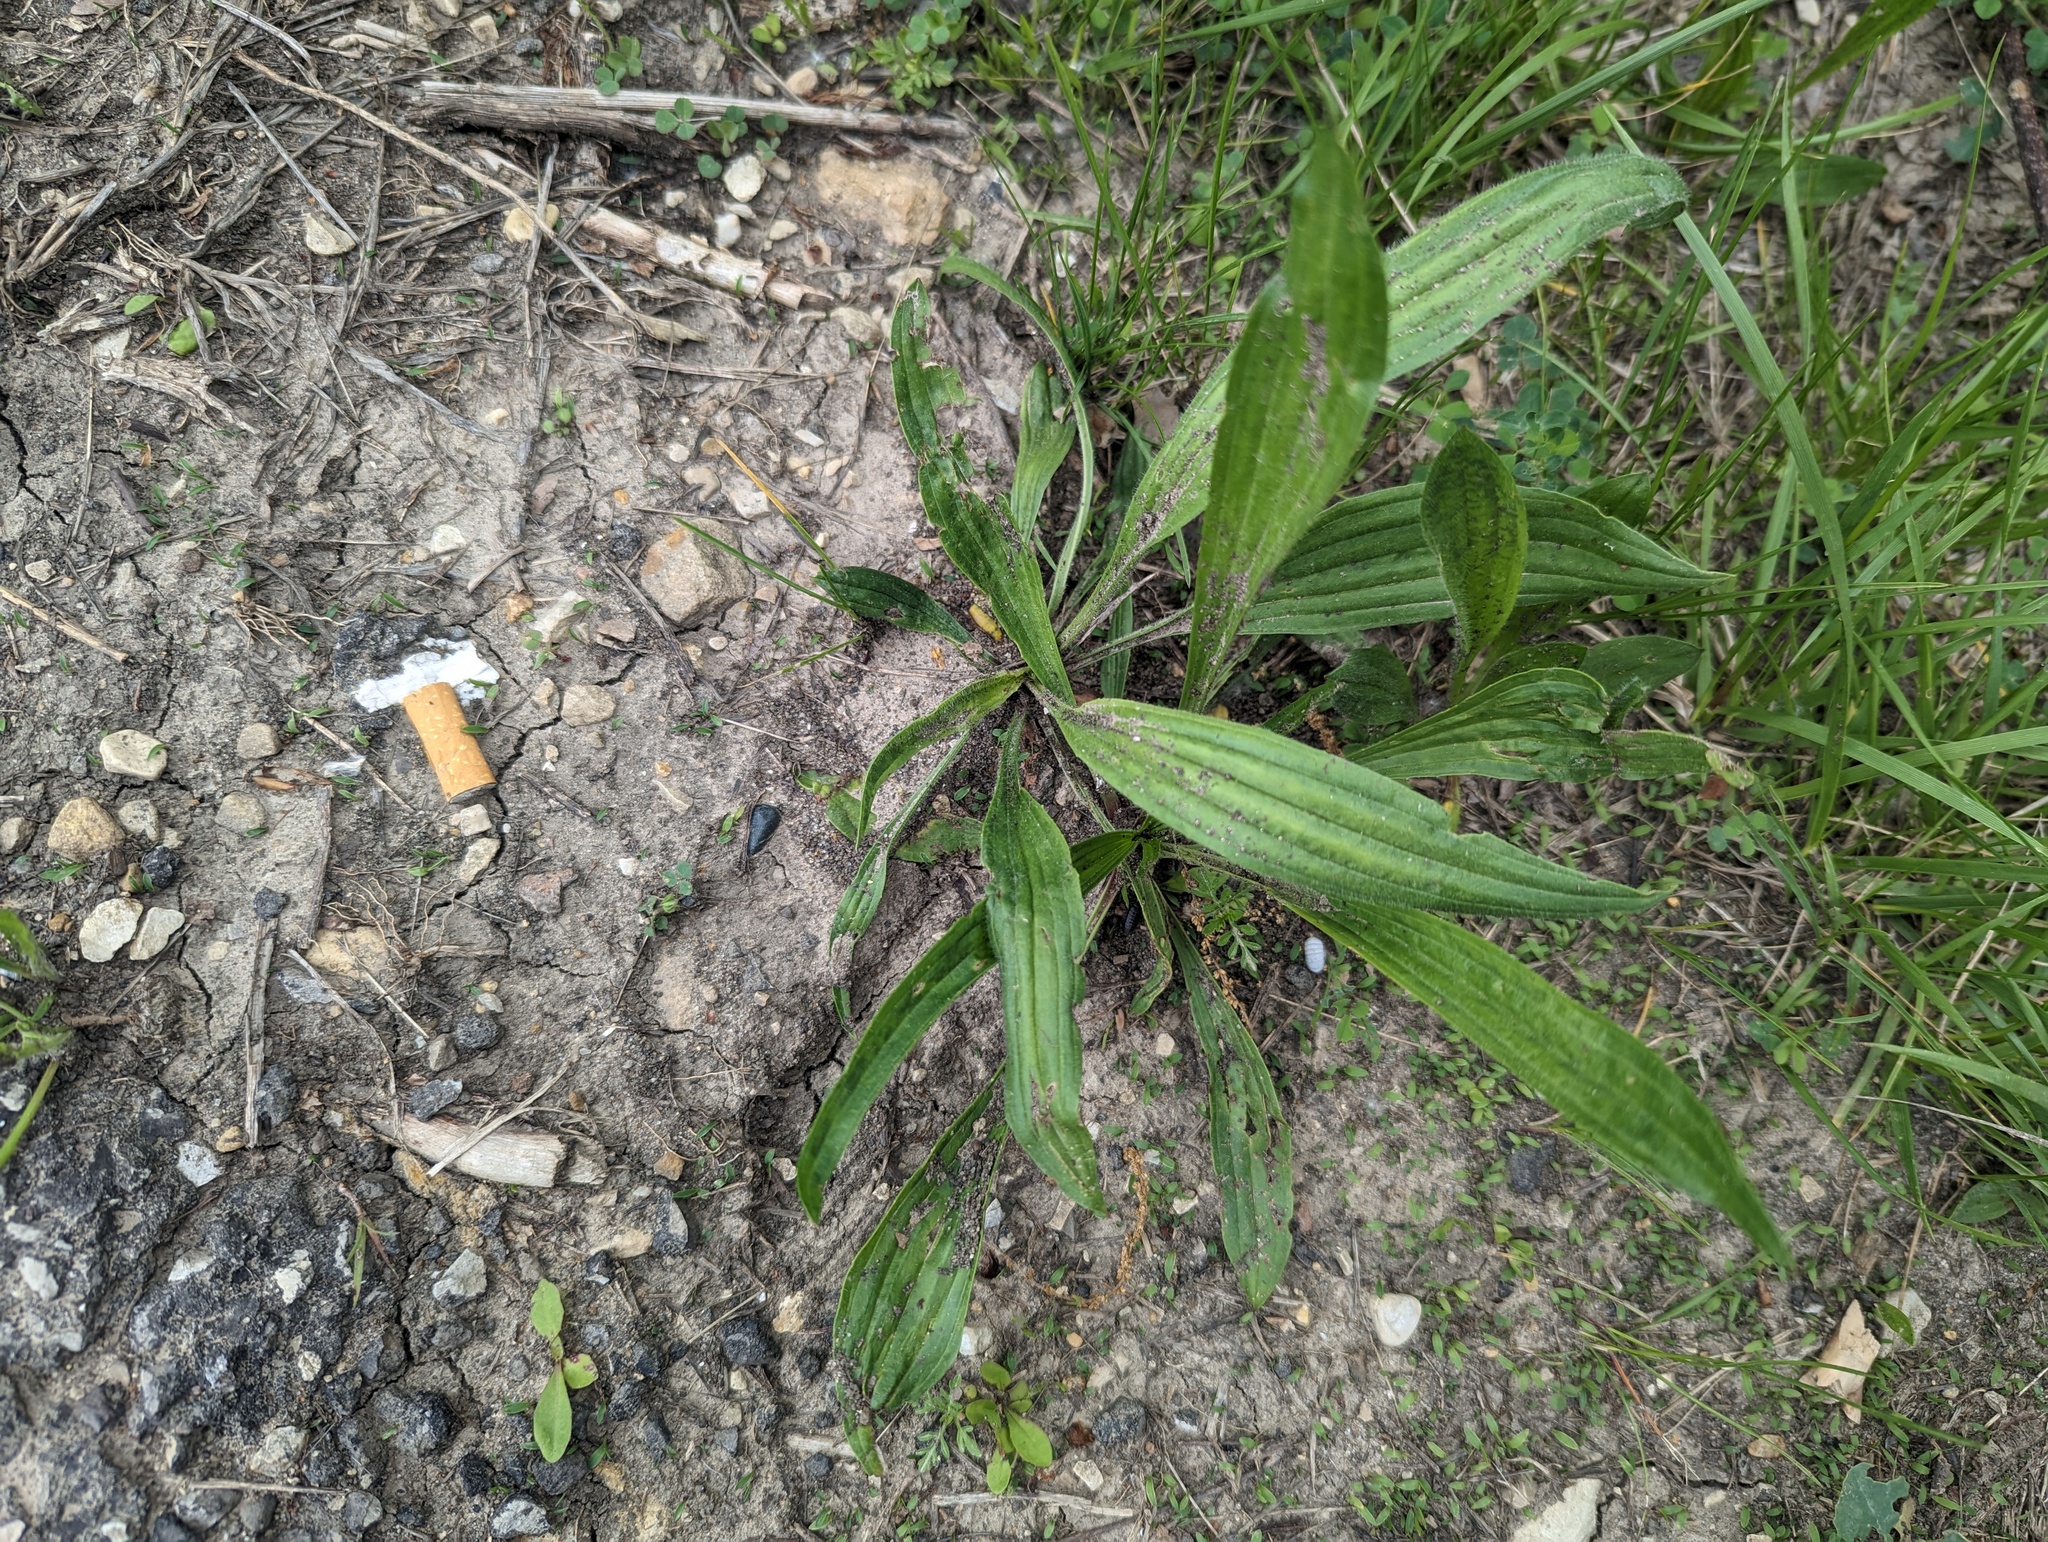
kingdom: Plantae
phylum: Tracheophyta
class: Magnoliopsida
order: Lamiales
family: Plantaginaceae
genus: Plantago
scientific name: Plantago lanceolata
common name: Ribwort plantain
